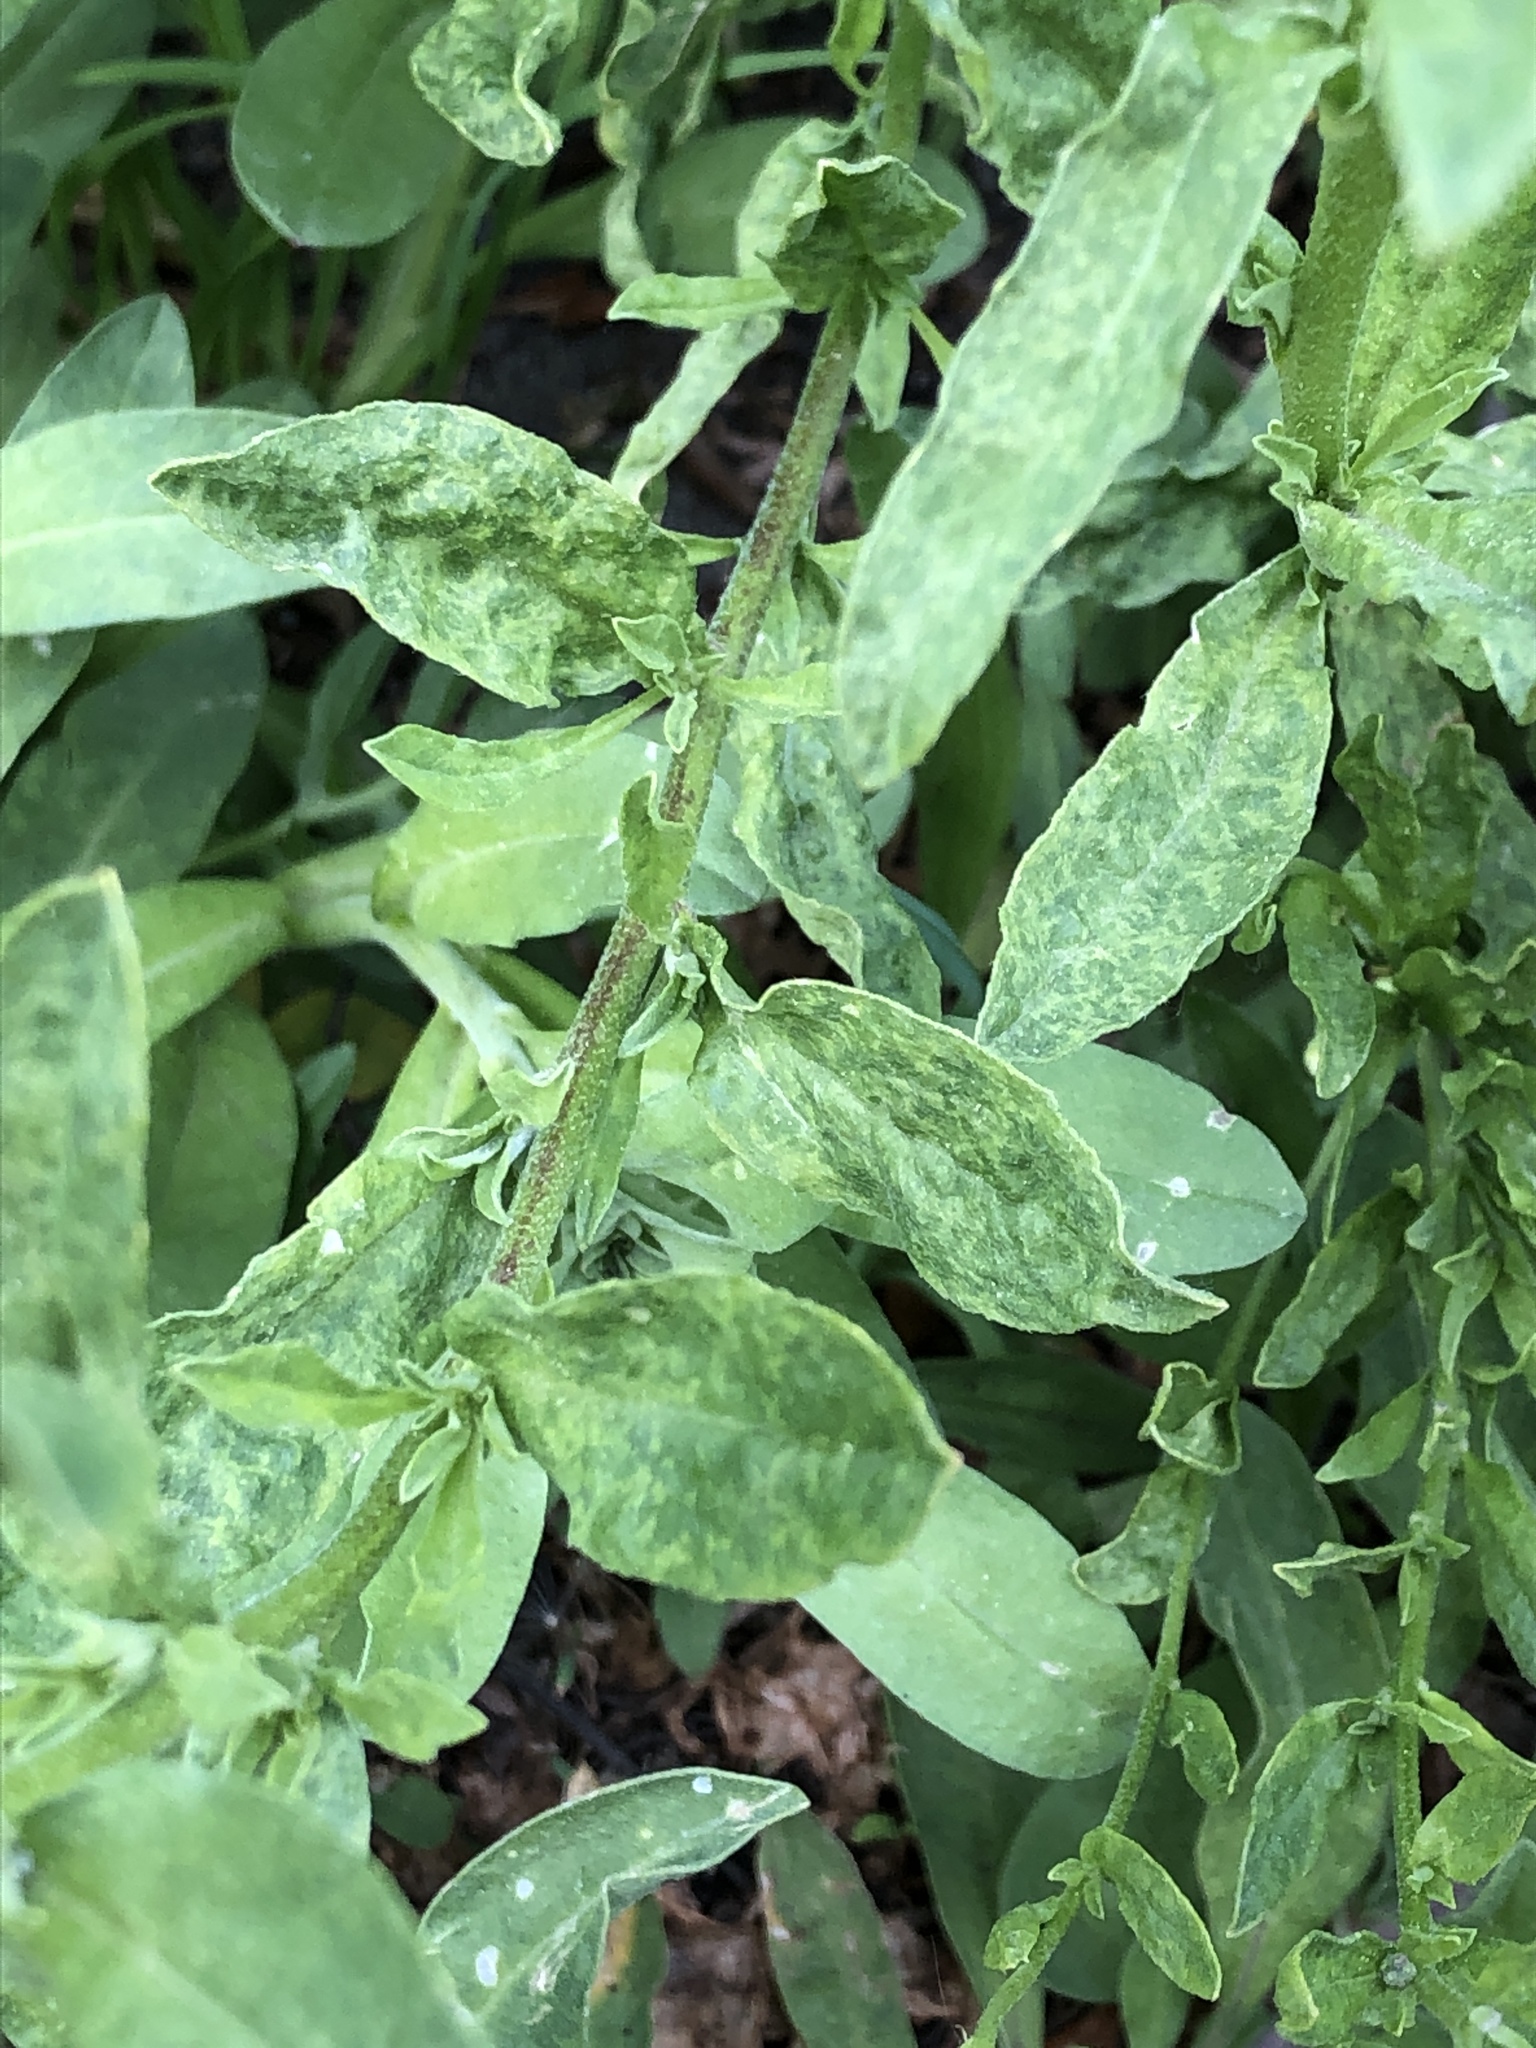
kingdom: Plantae
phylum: Tracheophyta
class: Magnoliopsida
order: Brassicales
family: Brassicaceae
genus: Berteroa
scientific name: Berteroa incana
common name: Hoary alison
